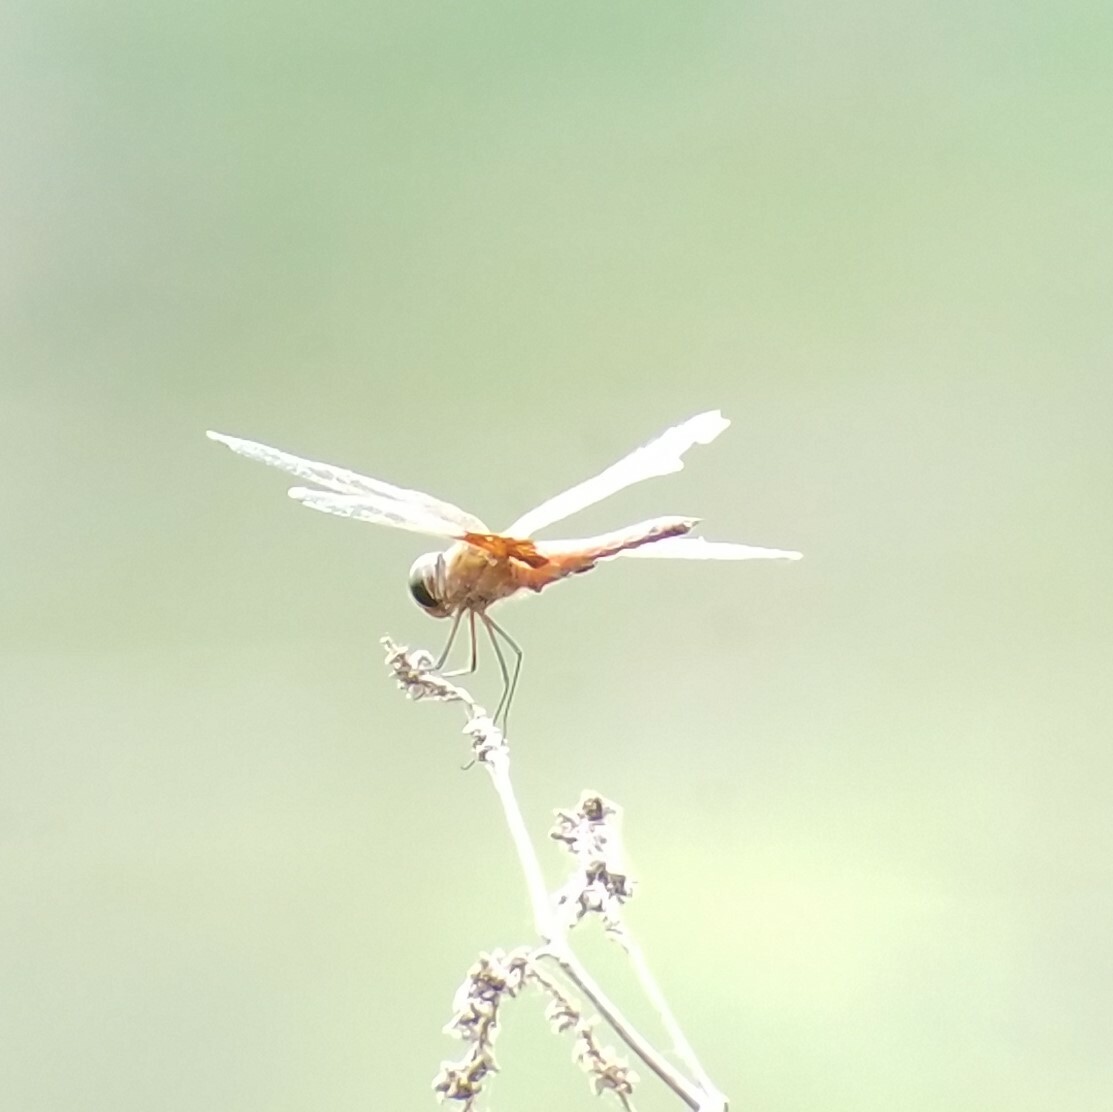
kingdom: Animalia
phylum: Arthropoda
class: Insecta
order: Odonata
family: Libellulidae
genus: Tramea
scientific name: Tramea carolina
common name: Carolina saddlebags
